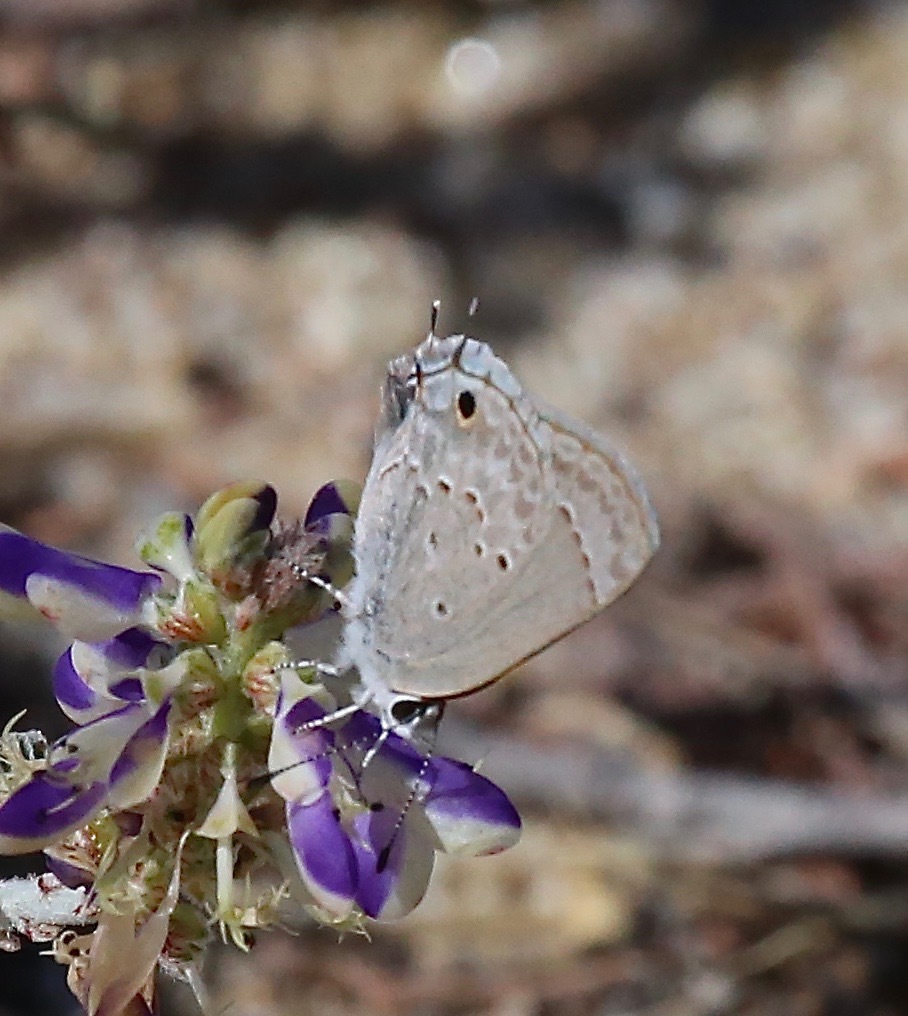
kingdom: Animalia
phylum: Arthropoda
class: Insecta
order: Lepidoptera
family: Lycaenidae
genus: Callicista
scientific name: Callicista columella
